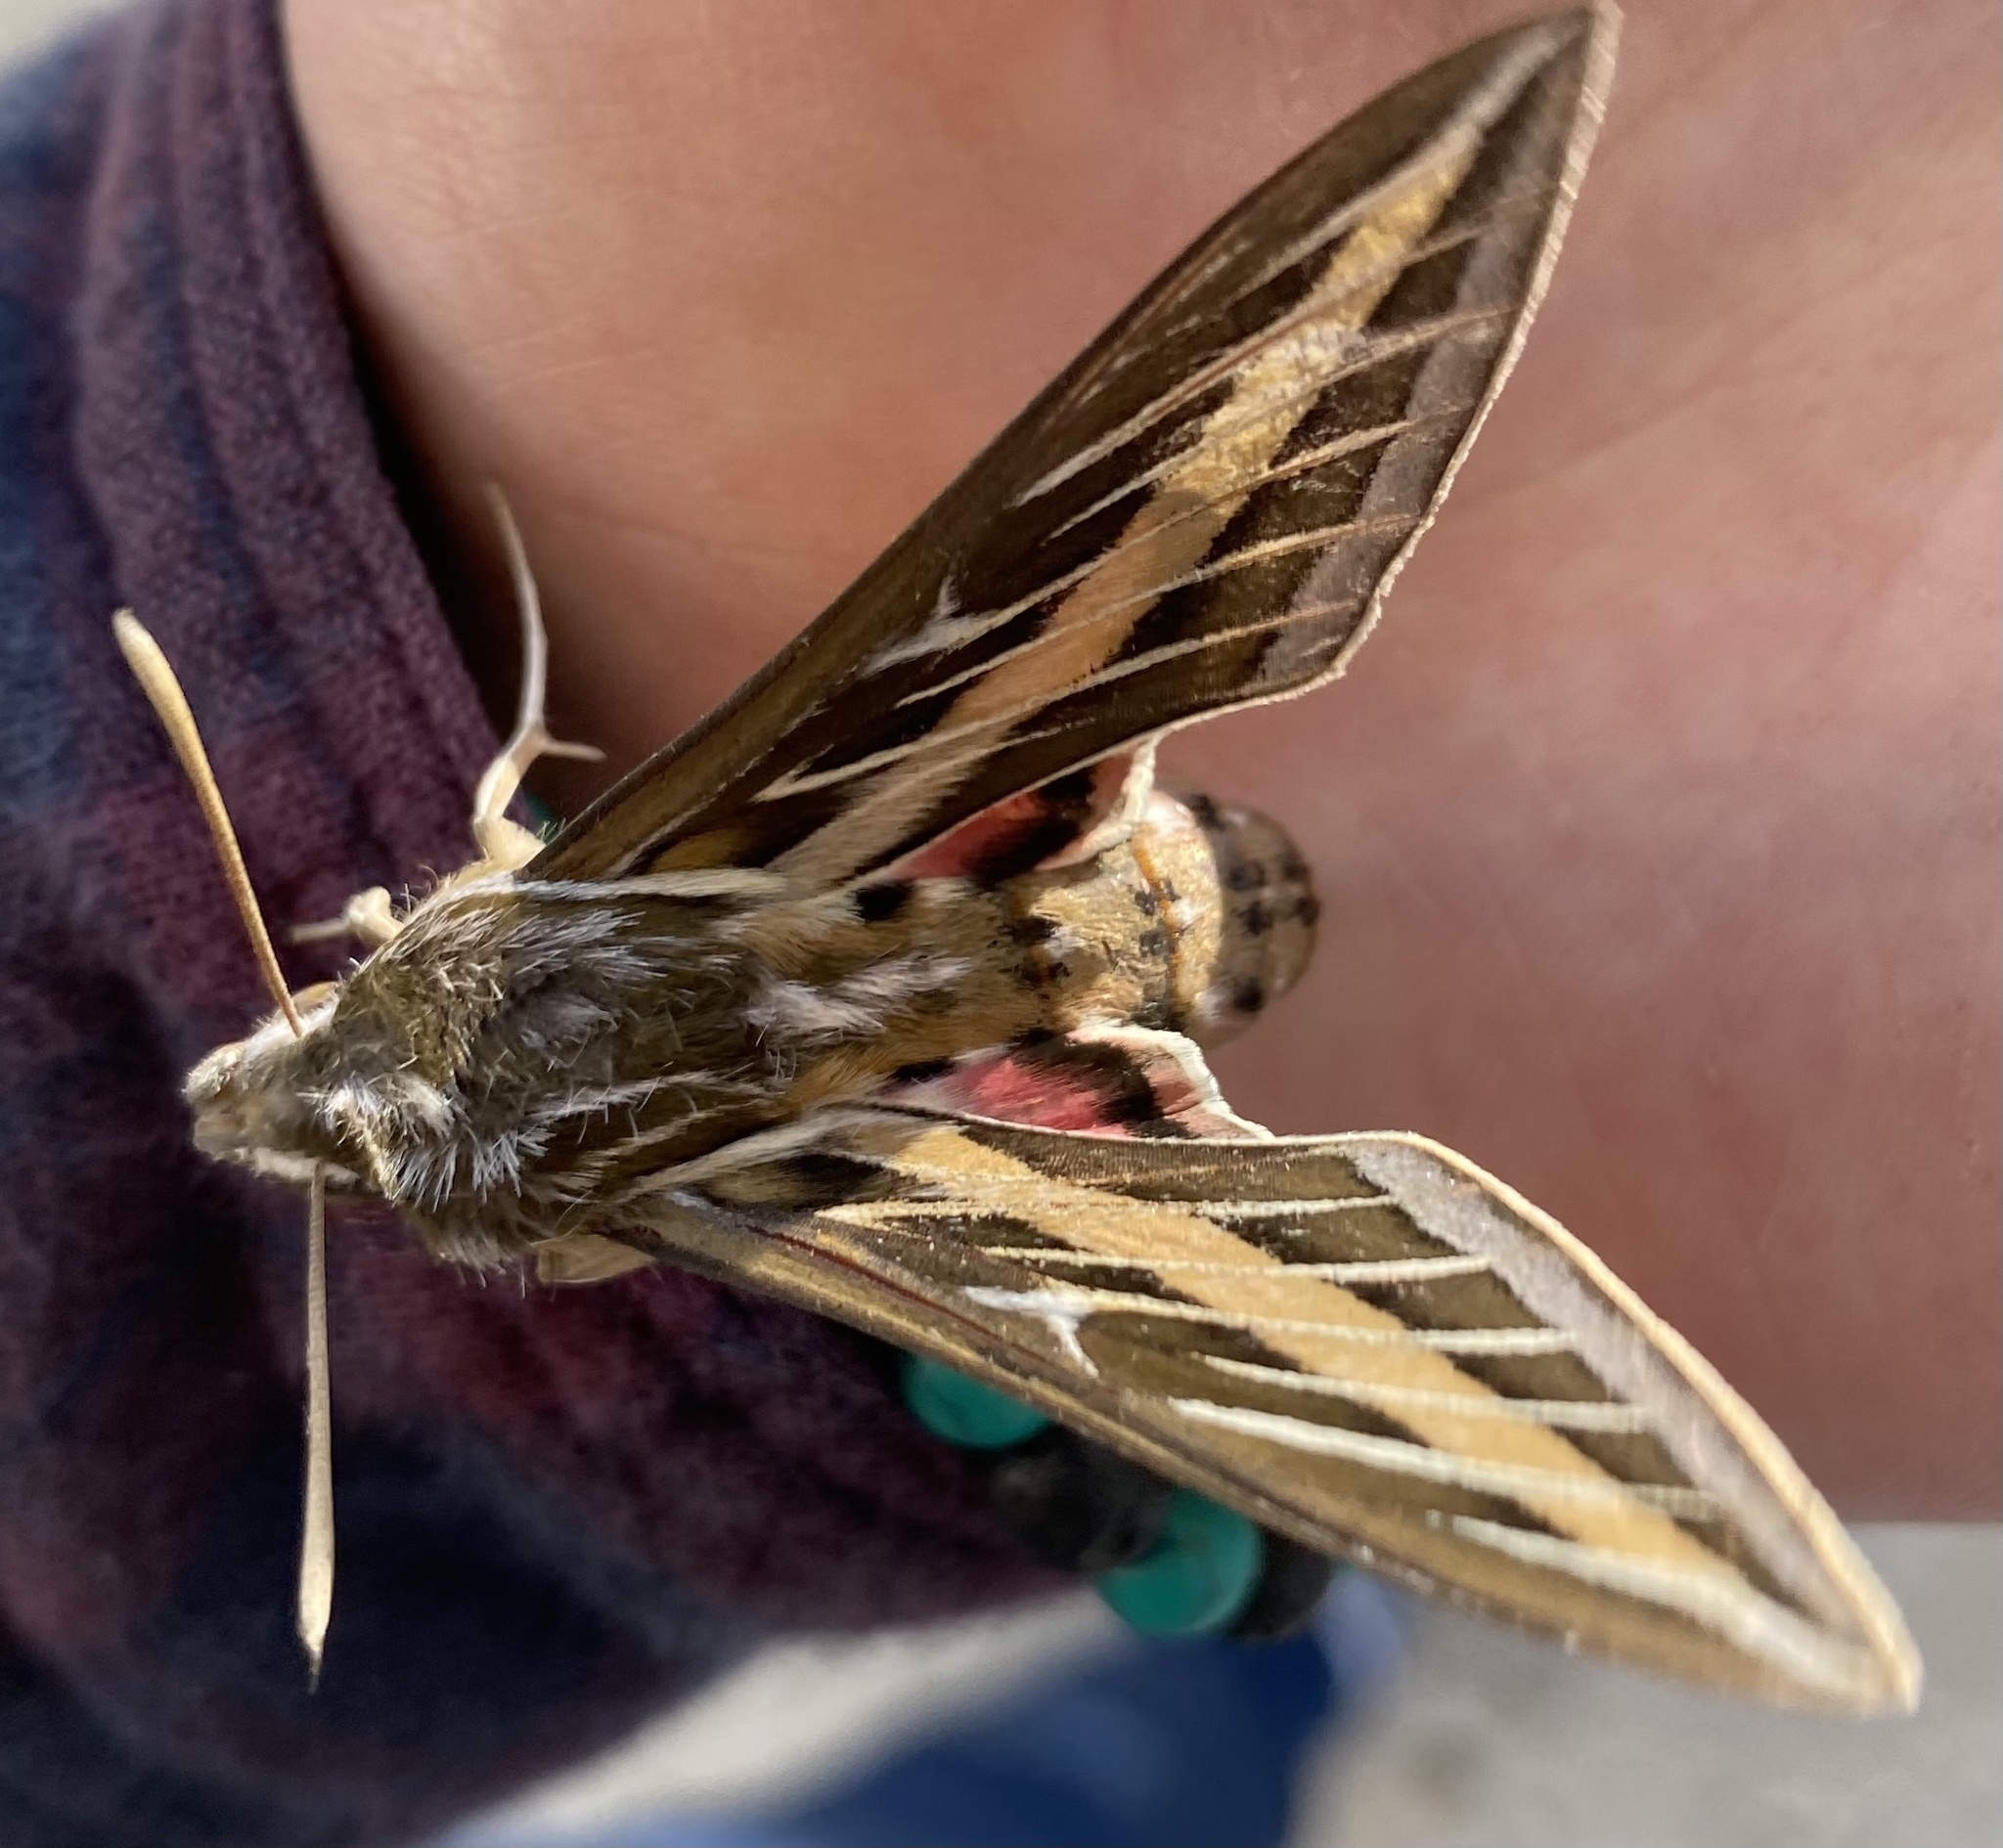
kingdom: Animalia
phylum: Arthropoda
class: Insecta
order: Lepidoptera
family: Sphingidae
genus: Hyles
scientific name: Hyles lineata
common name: White-lined sphinx
